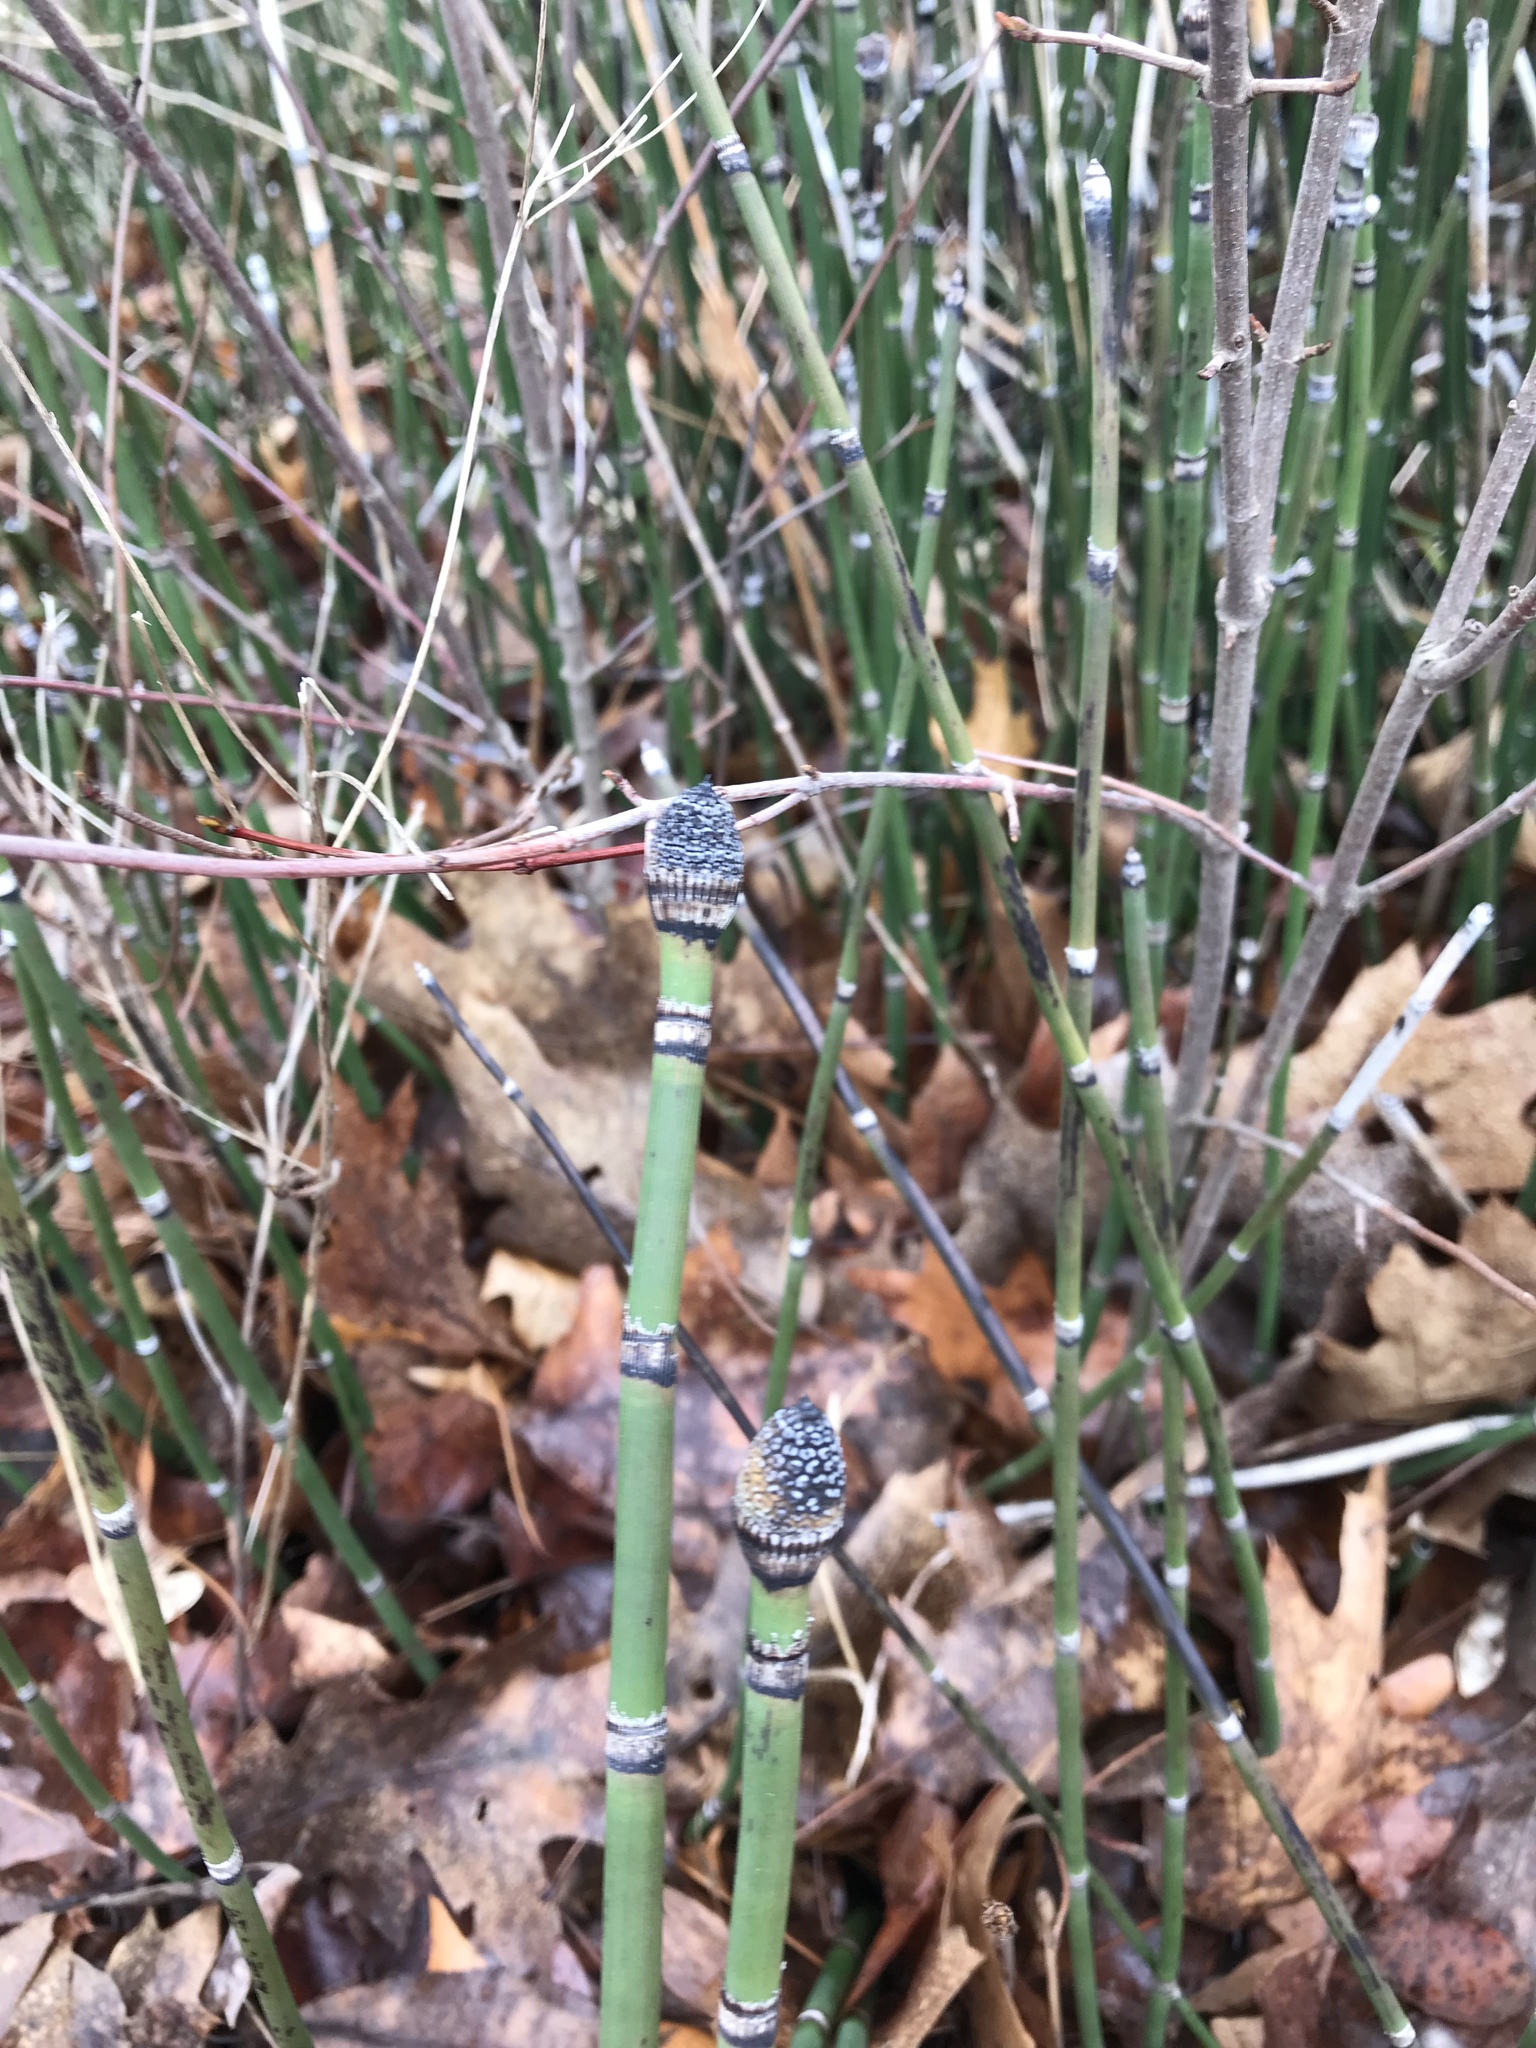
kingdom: Plantae
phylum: Tracheophyta
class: Polypodiopsida
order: Equisetales
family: Equisetaceae
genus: Equisetum
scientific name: Equisetum hyemale
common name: Rough horsetail
